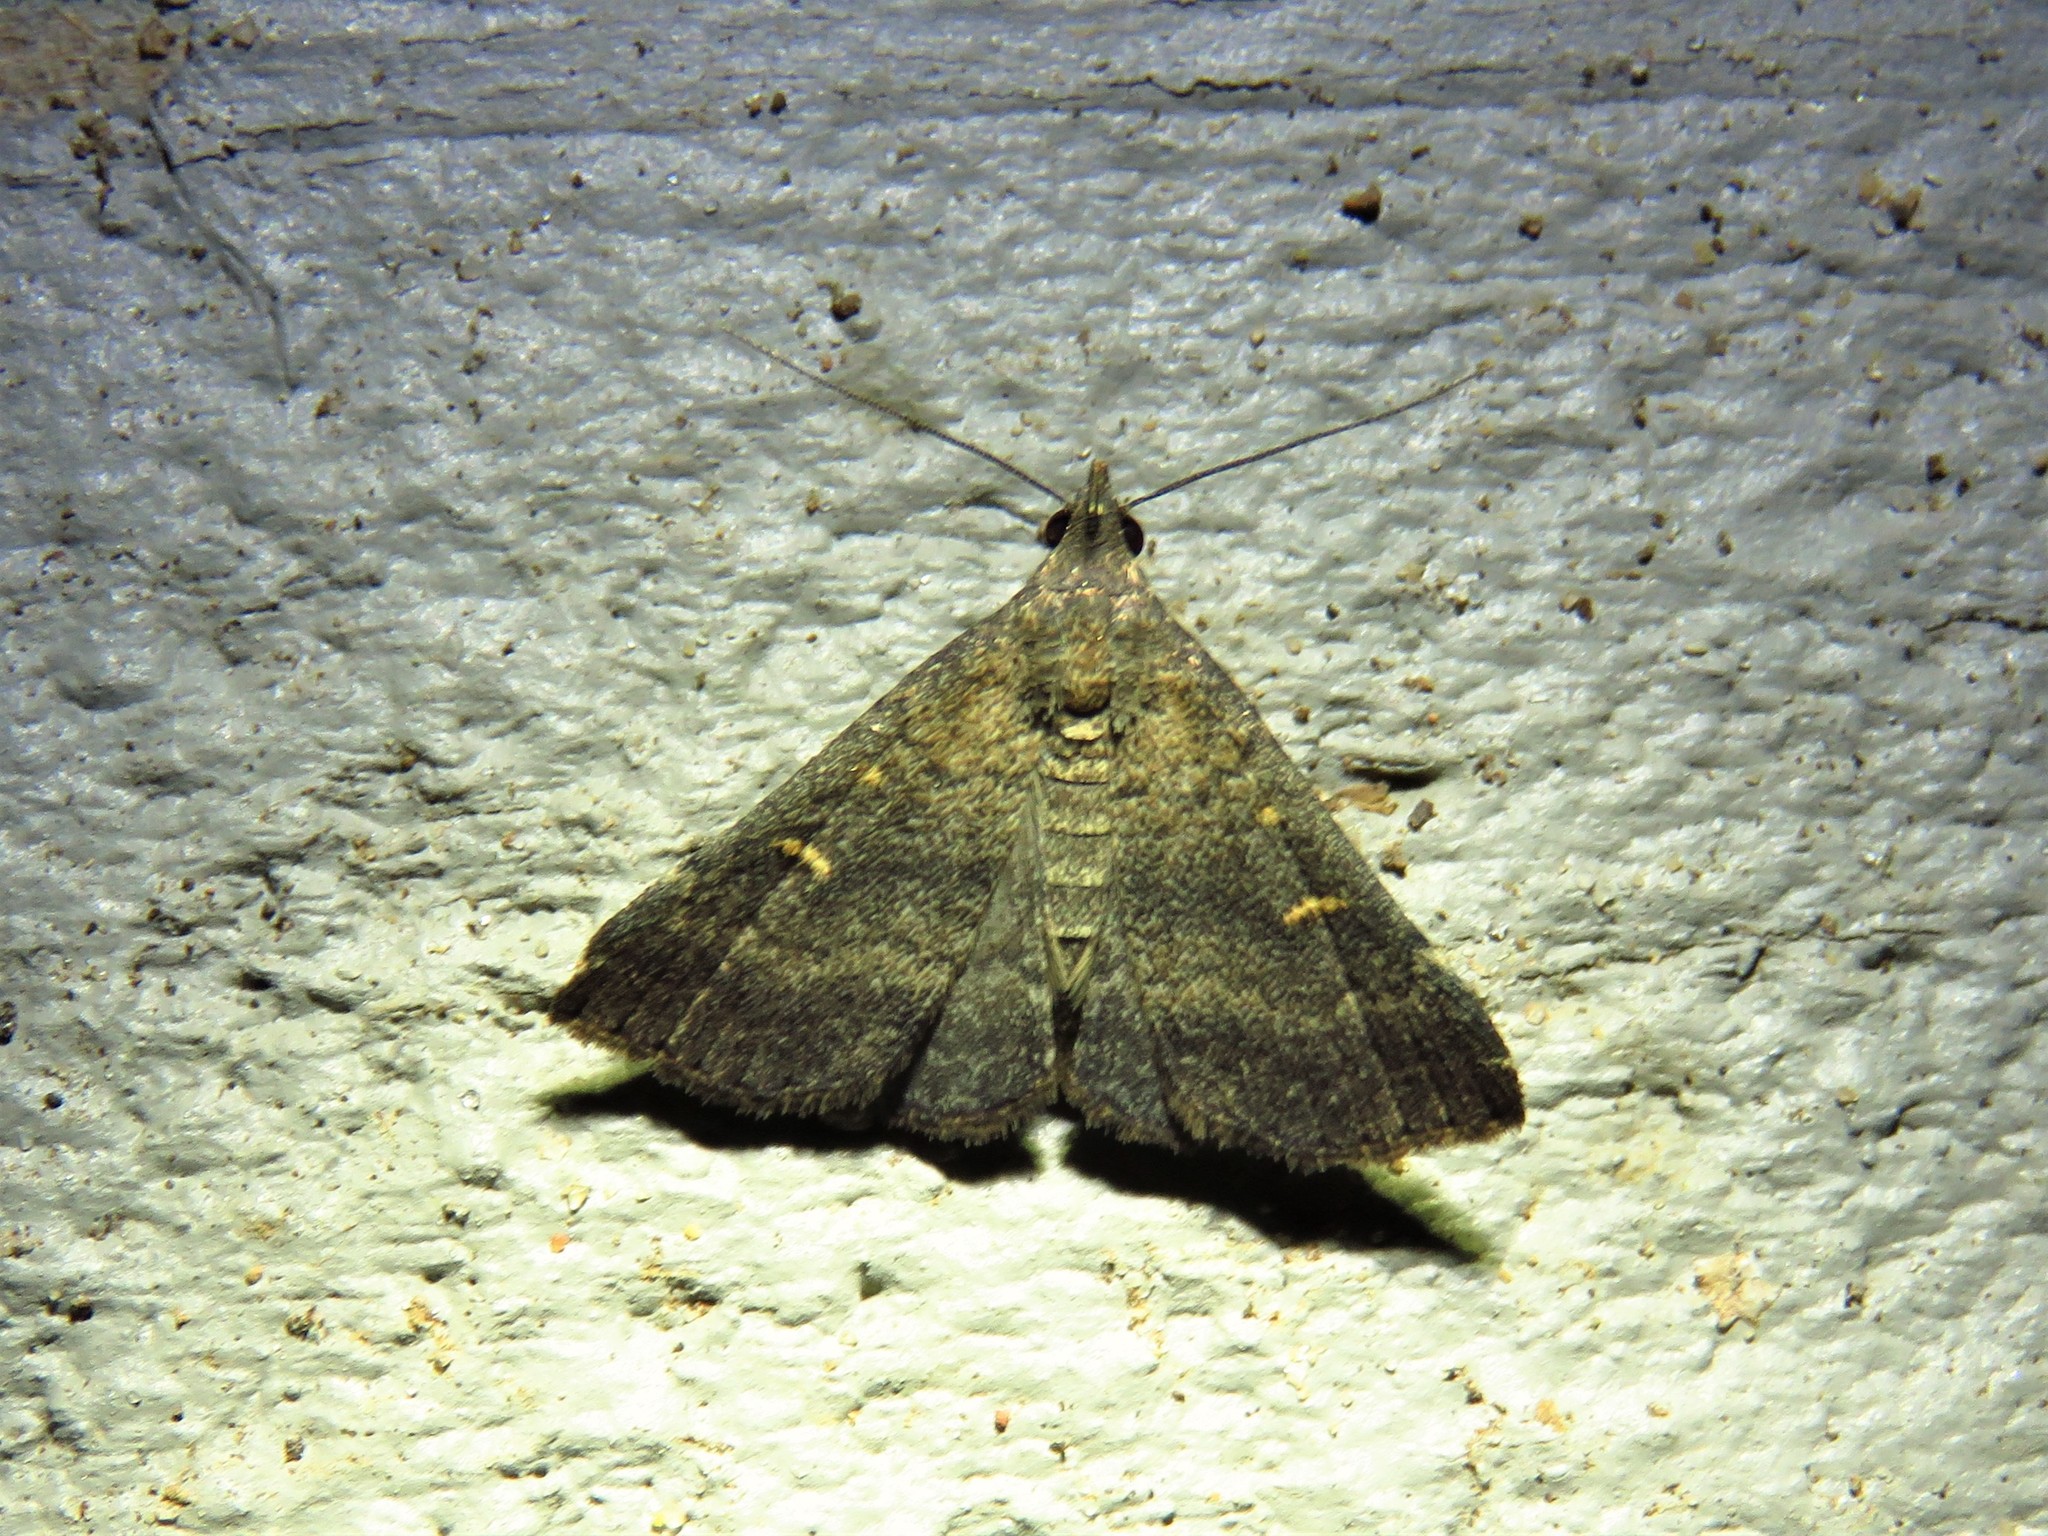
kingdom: Animalia
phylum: Arthropoda
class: Insecta
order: Lepidoptera
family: Erebidae
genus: Tetanolita
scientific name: Tetanolita mynesalis
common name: Smoky tetanolita moth
